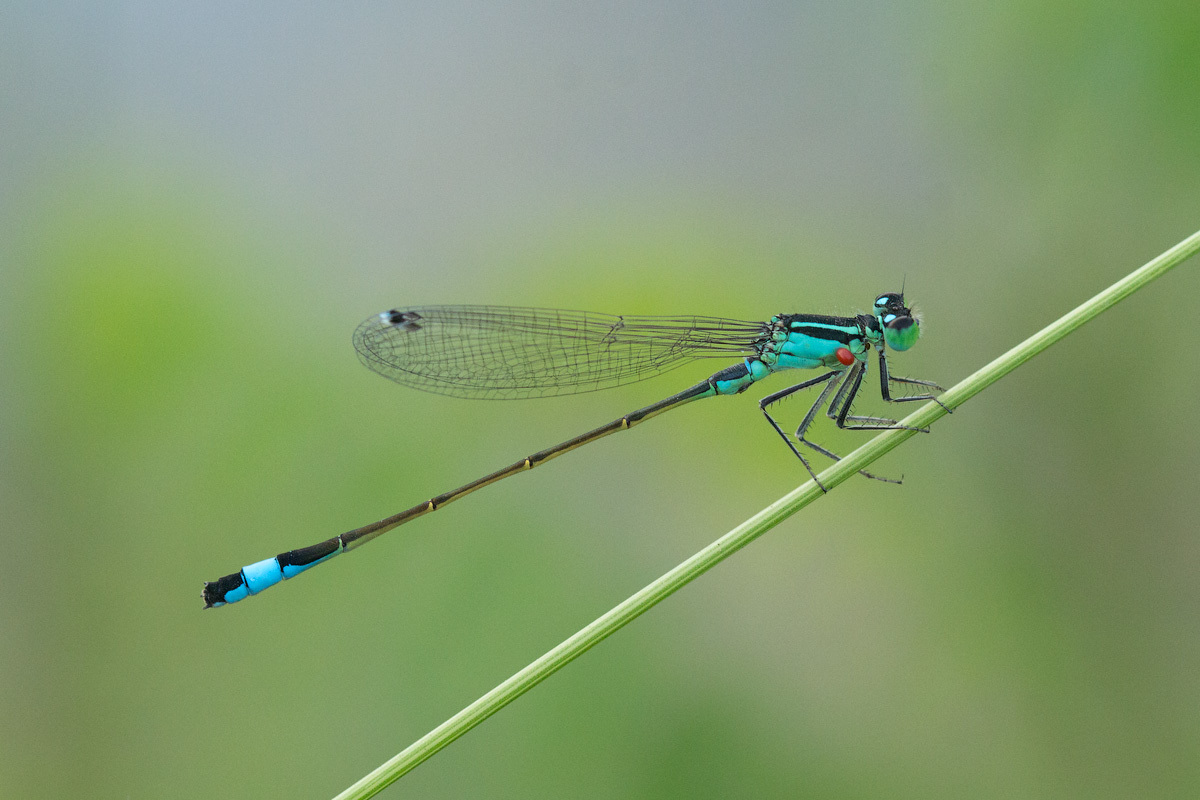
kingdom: Animalia
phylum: Arthropoda
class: Insecta
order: Odonata
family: Coenagrionidae
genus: Ischnura
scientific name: Ischnura elegans
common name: Blue-tailed damselfly
